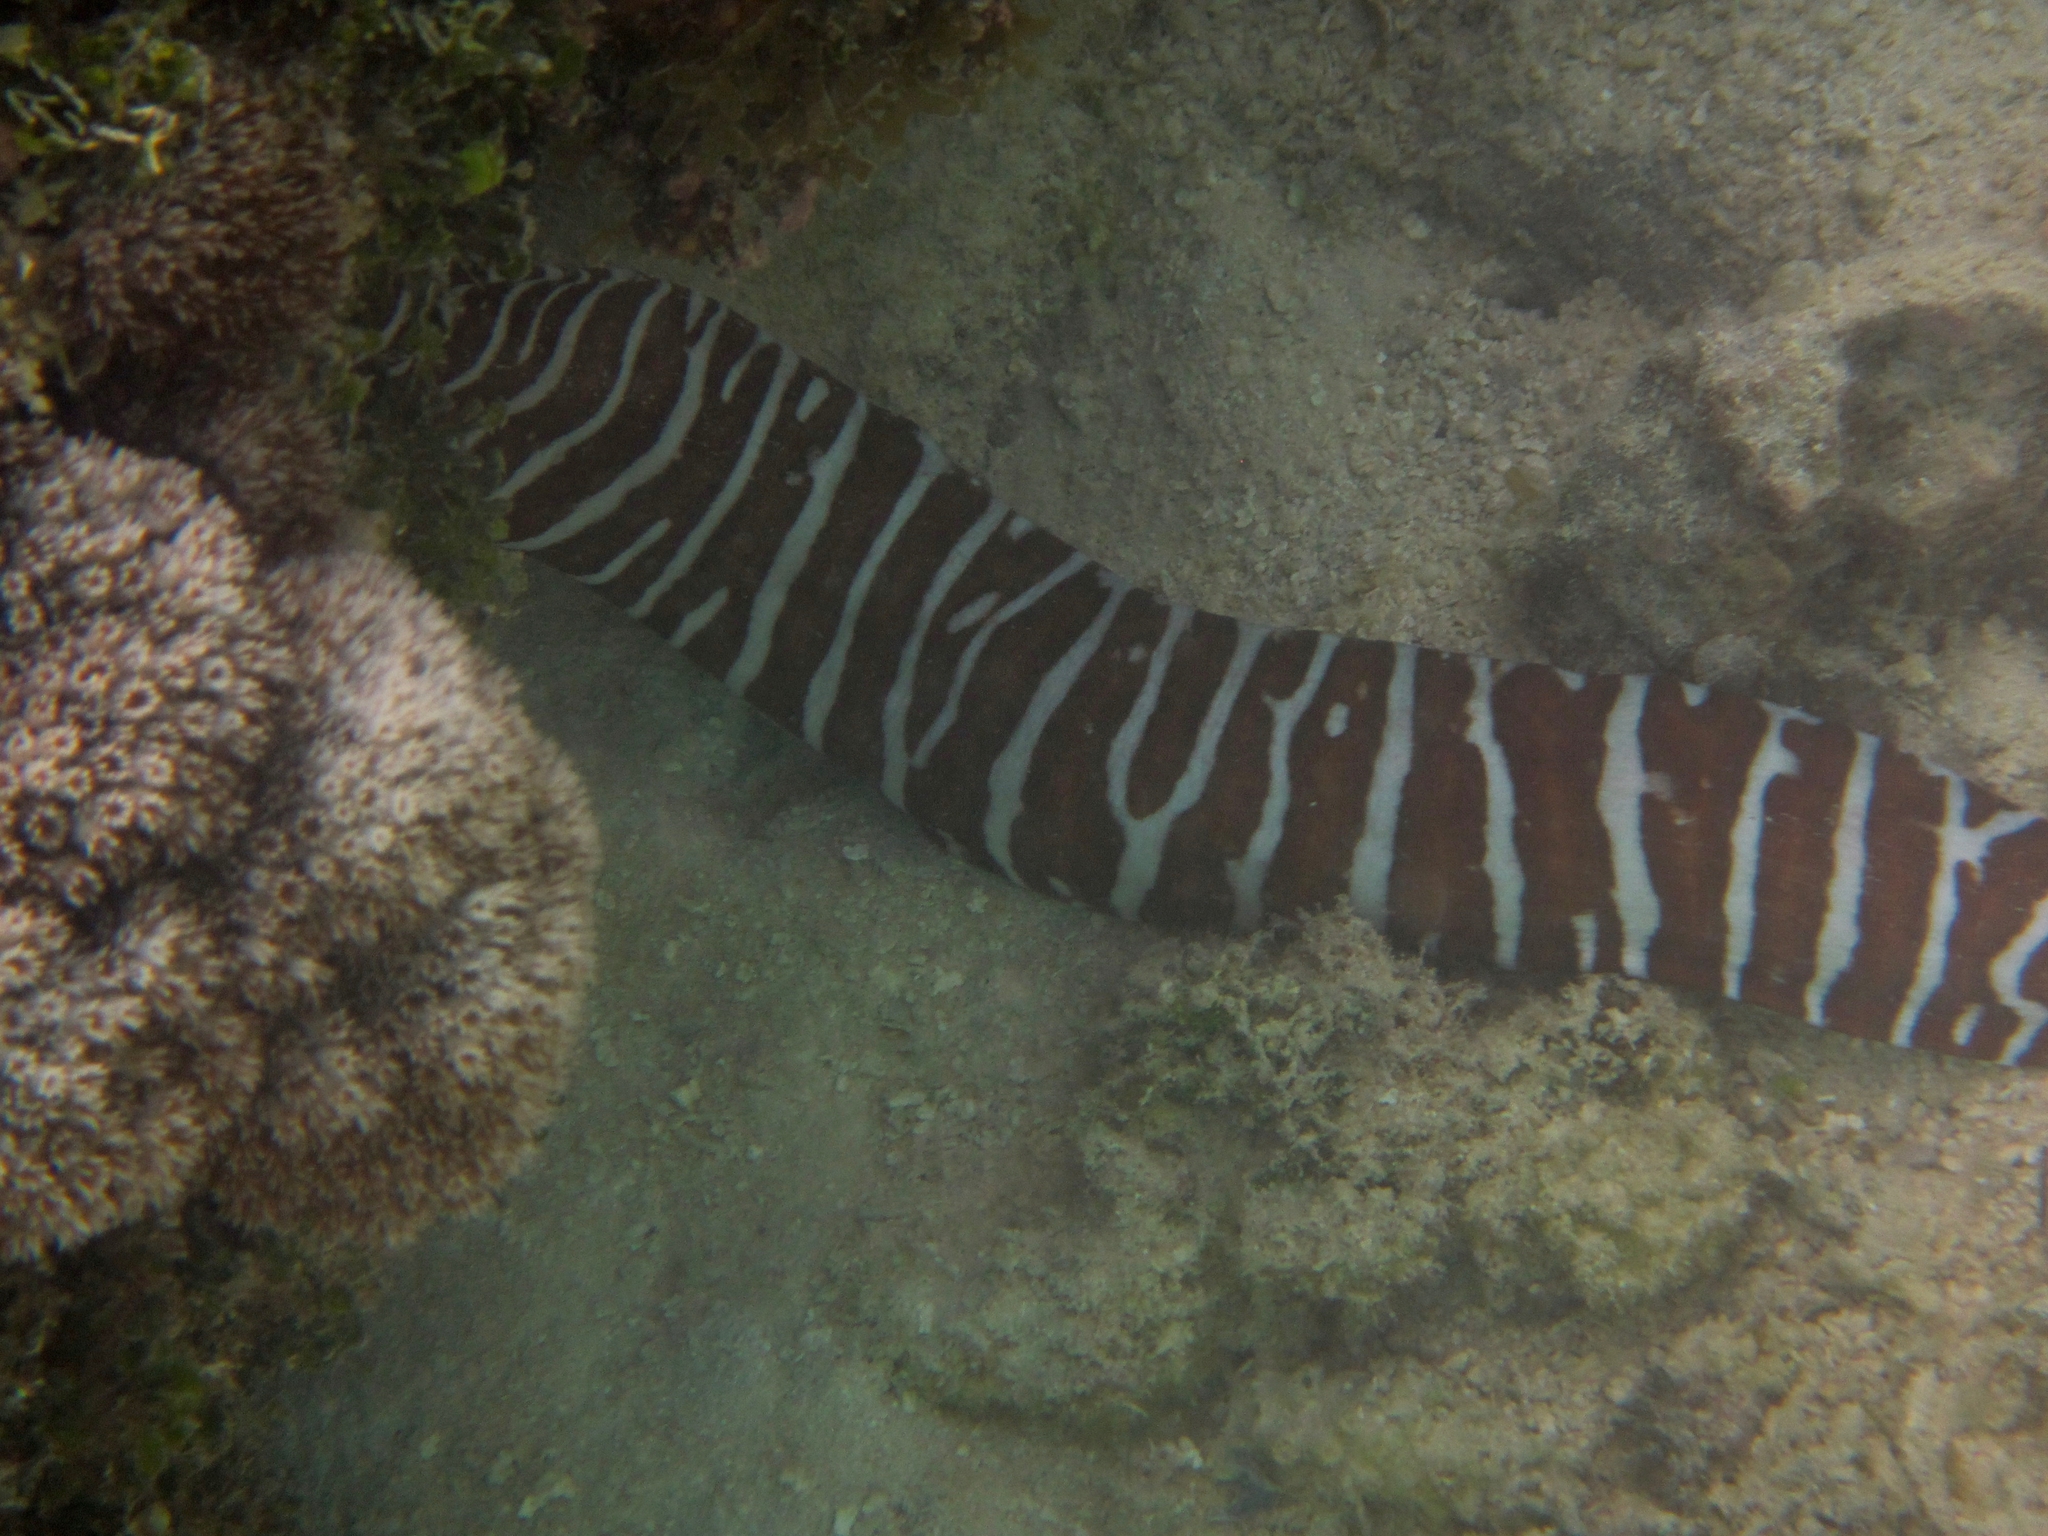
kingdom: Animalia
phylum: Chordata
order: Anguilliformes
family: Muraenidae
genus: Gymnomuraena
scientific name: Gymnomuraena zebra
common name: Zebra moray
